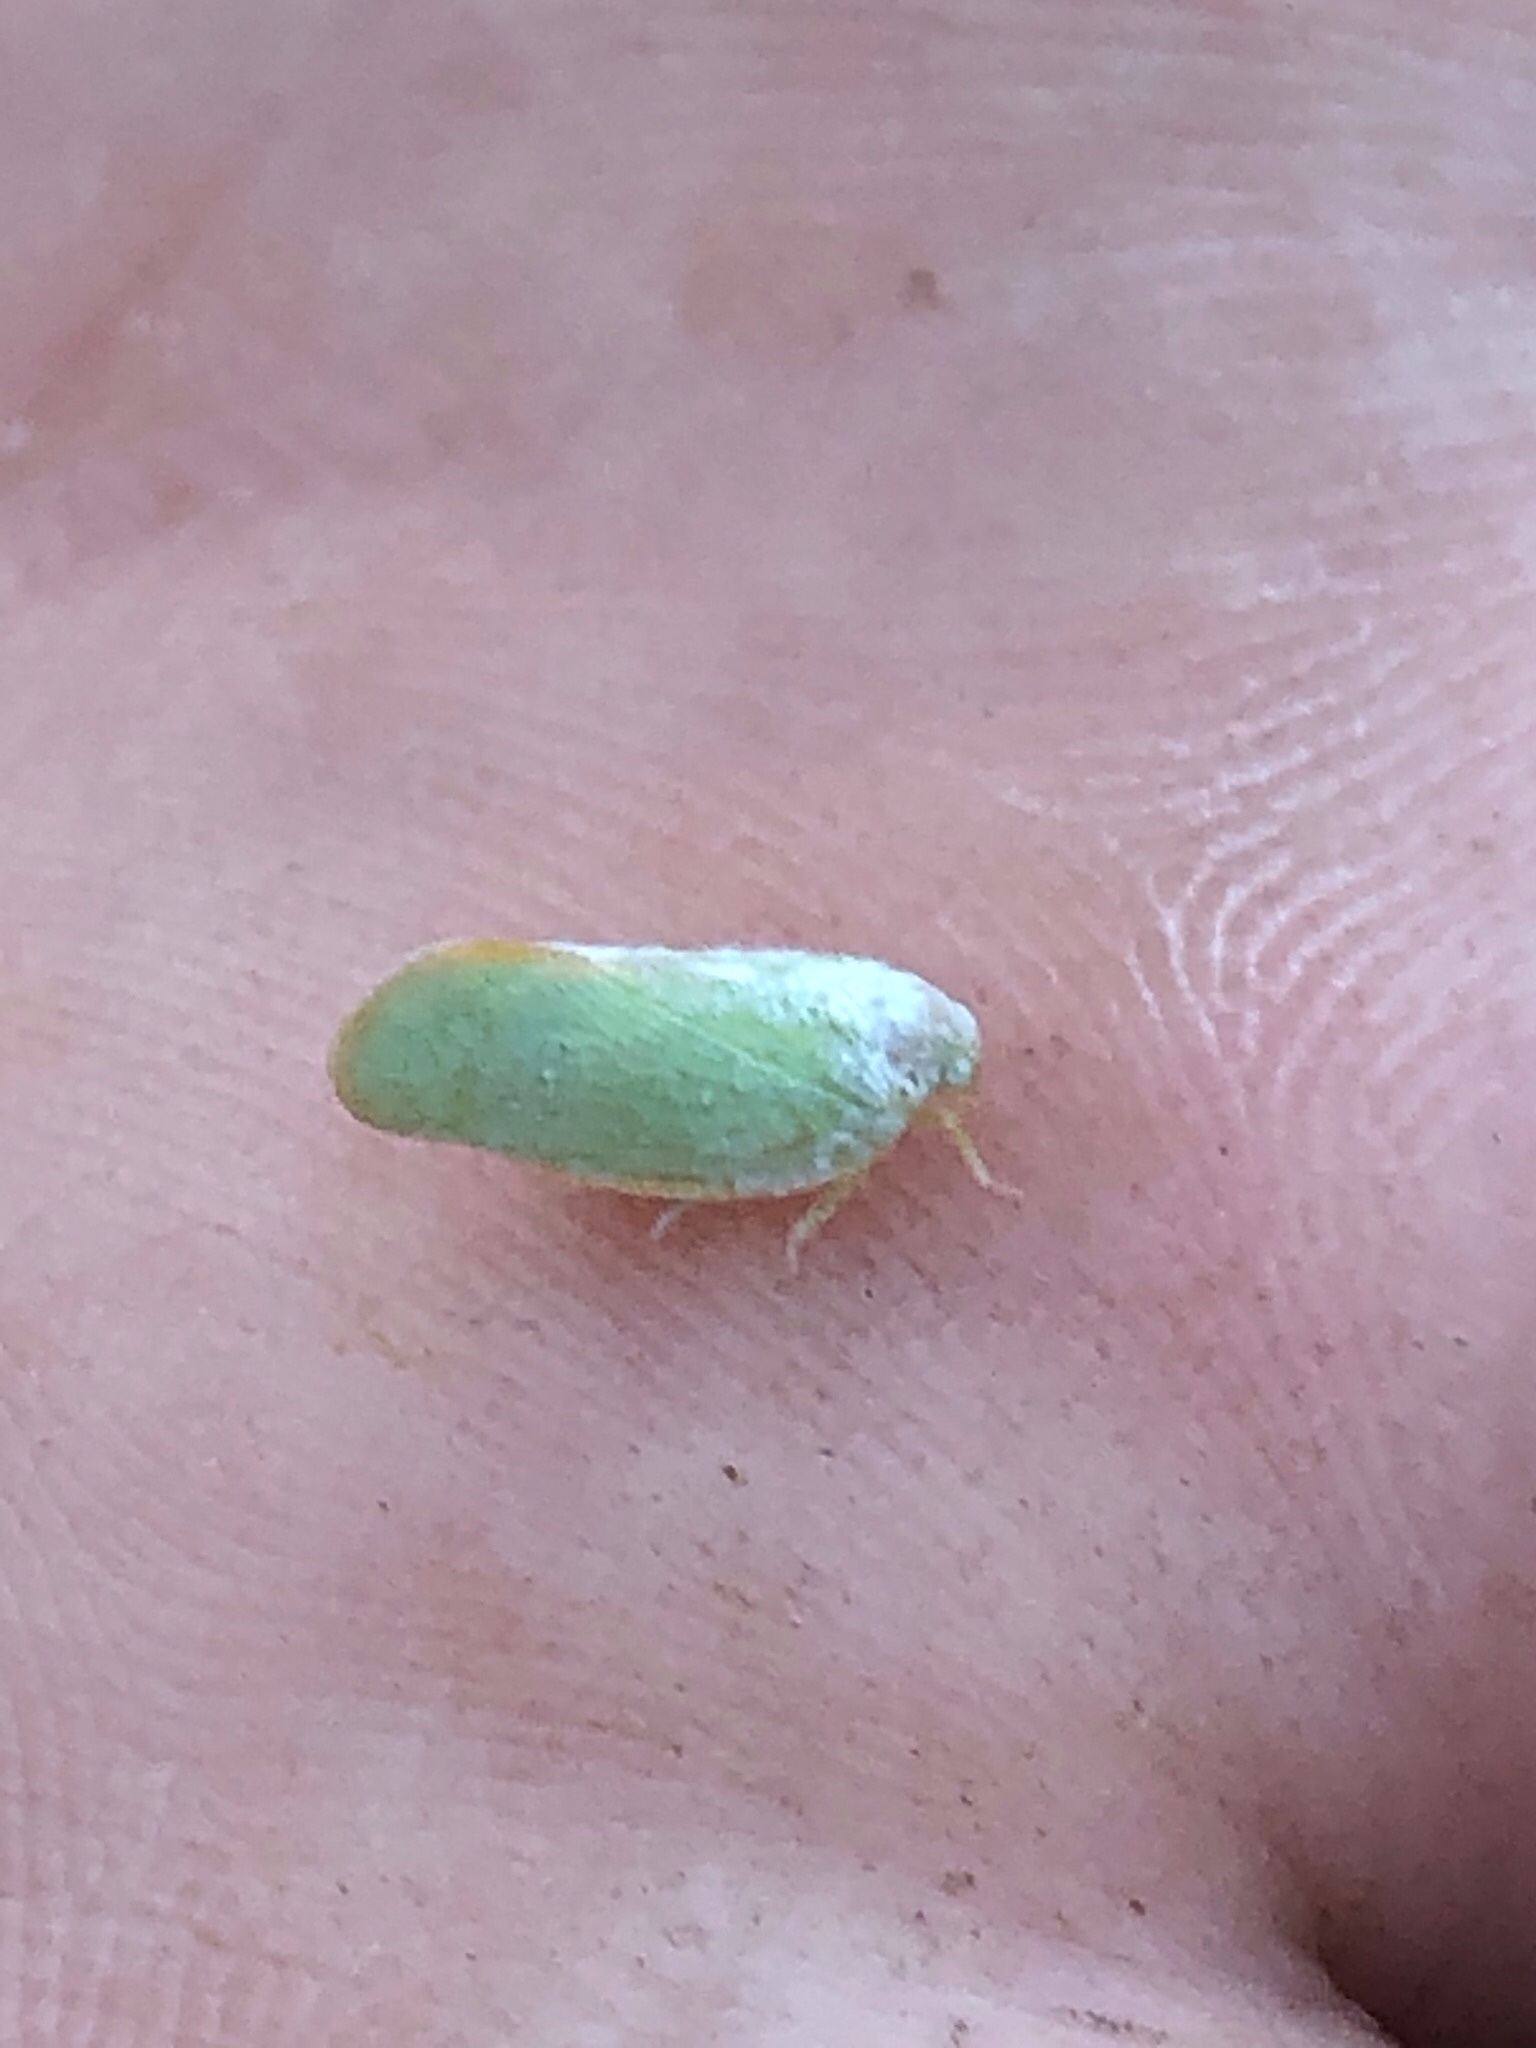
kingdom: Animalia
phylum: Arthropoda
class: Insecta
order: Hemiptera
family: Flatidae
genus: Ormenoides
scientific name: Ormenoides venusta
